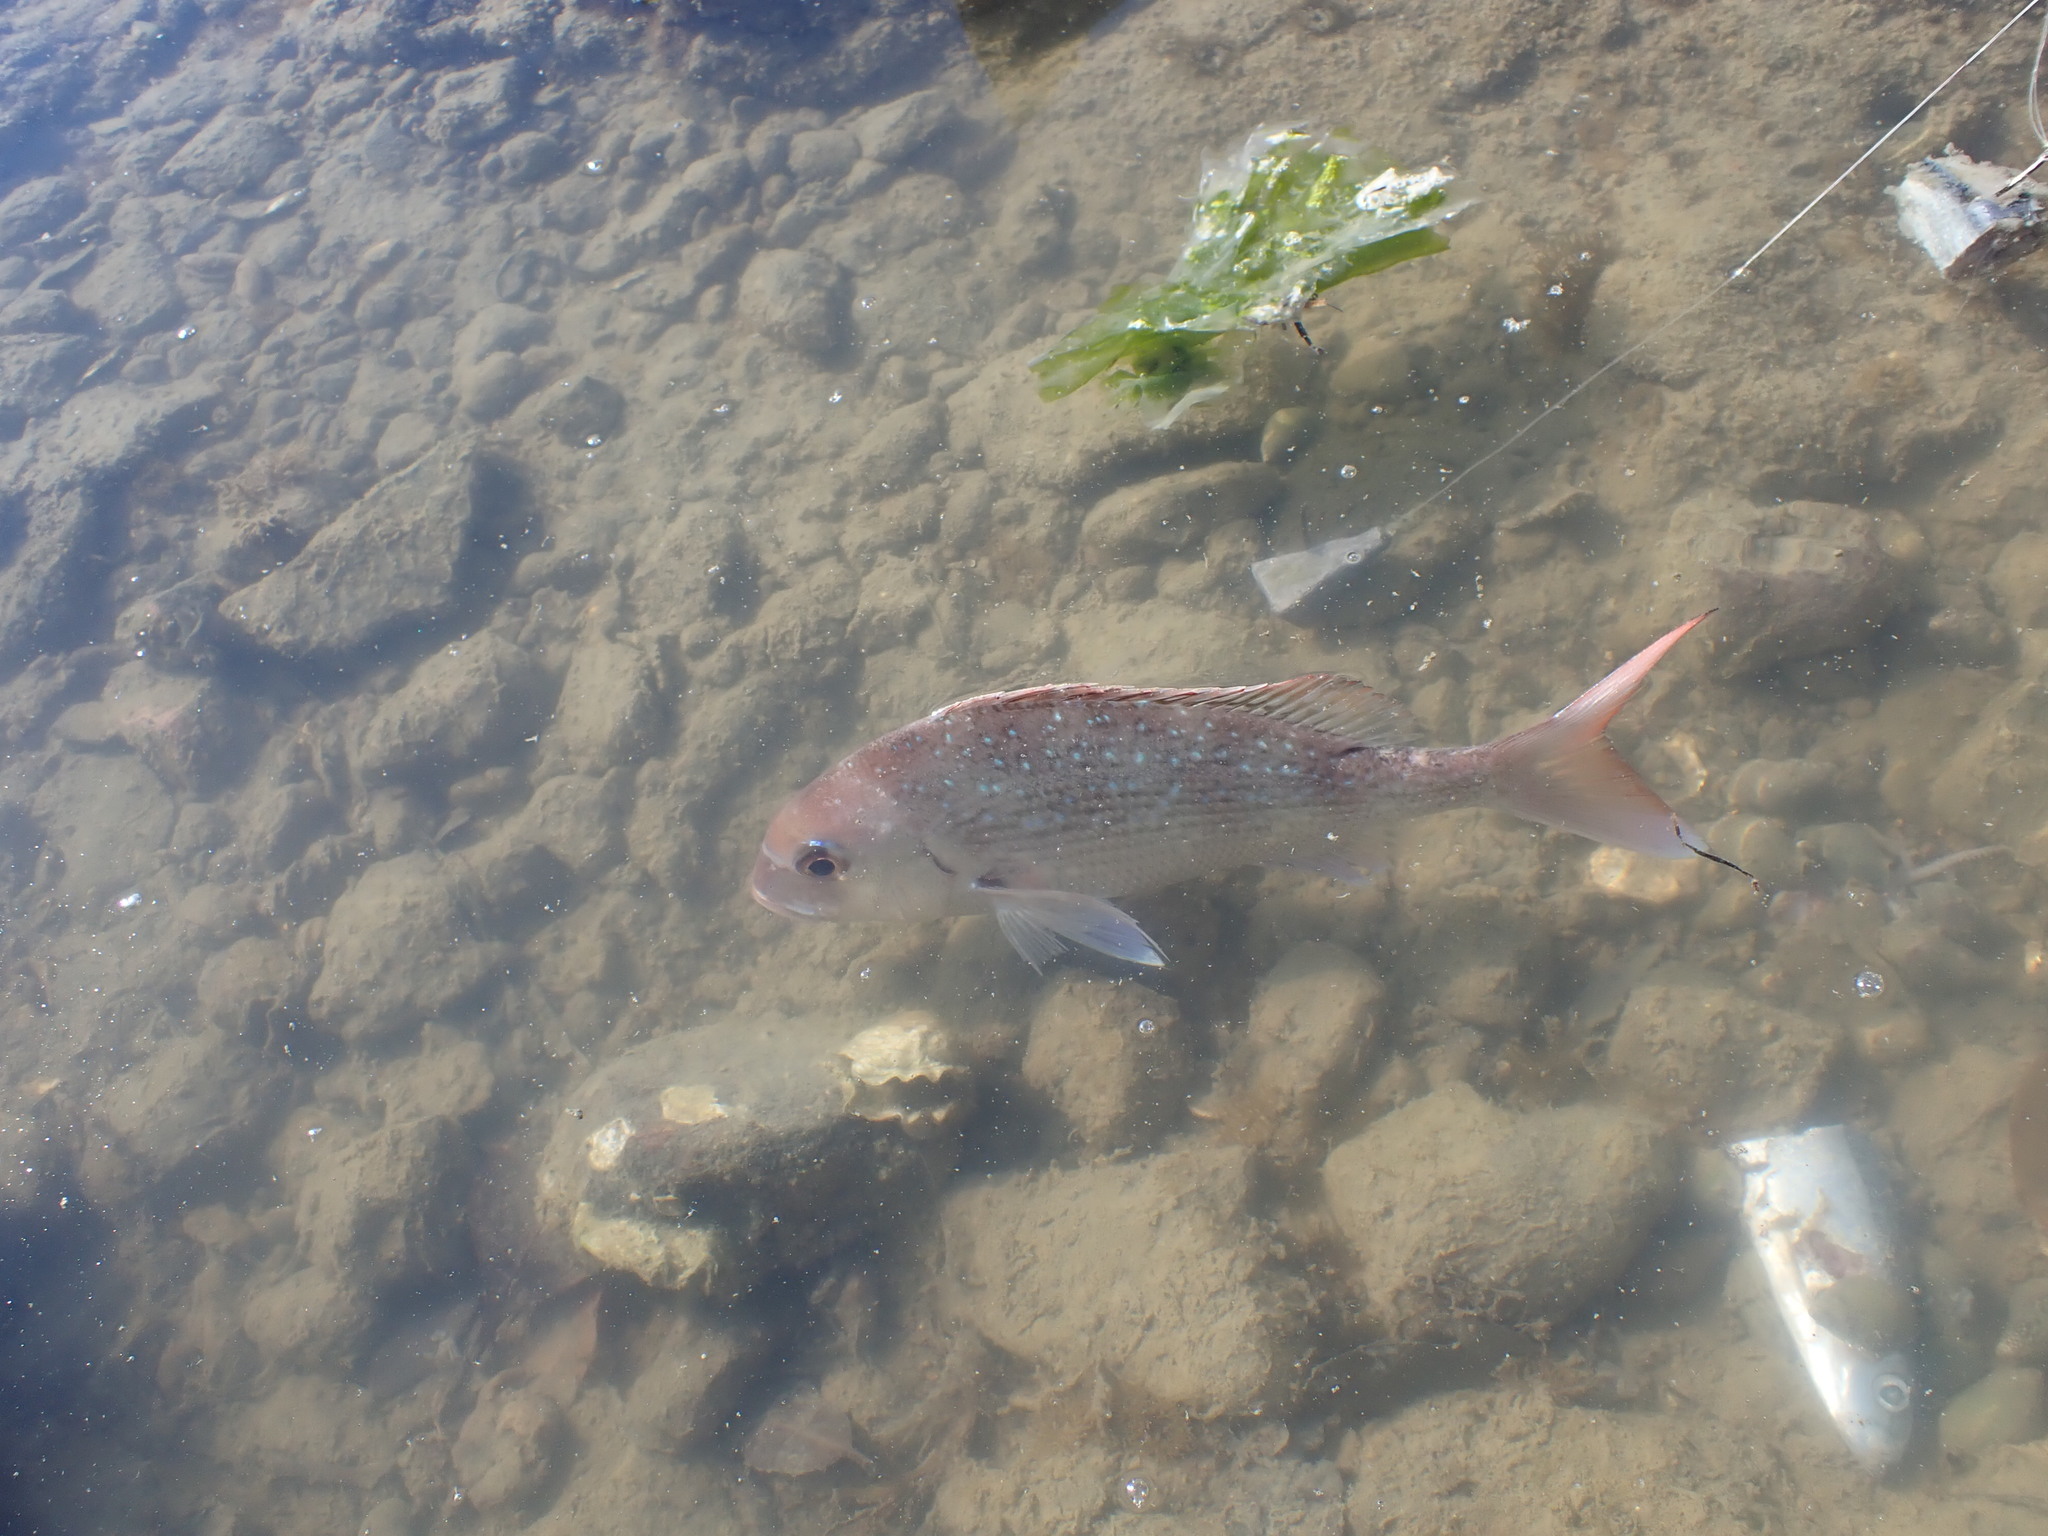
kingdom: Animalia
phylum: Chordata
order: Perciformes
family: Sparidae
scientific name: Sparidae
